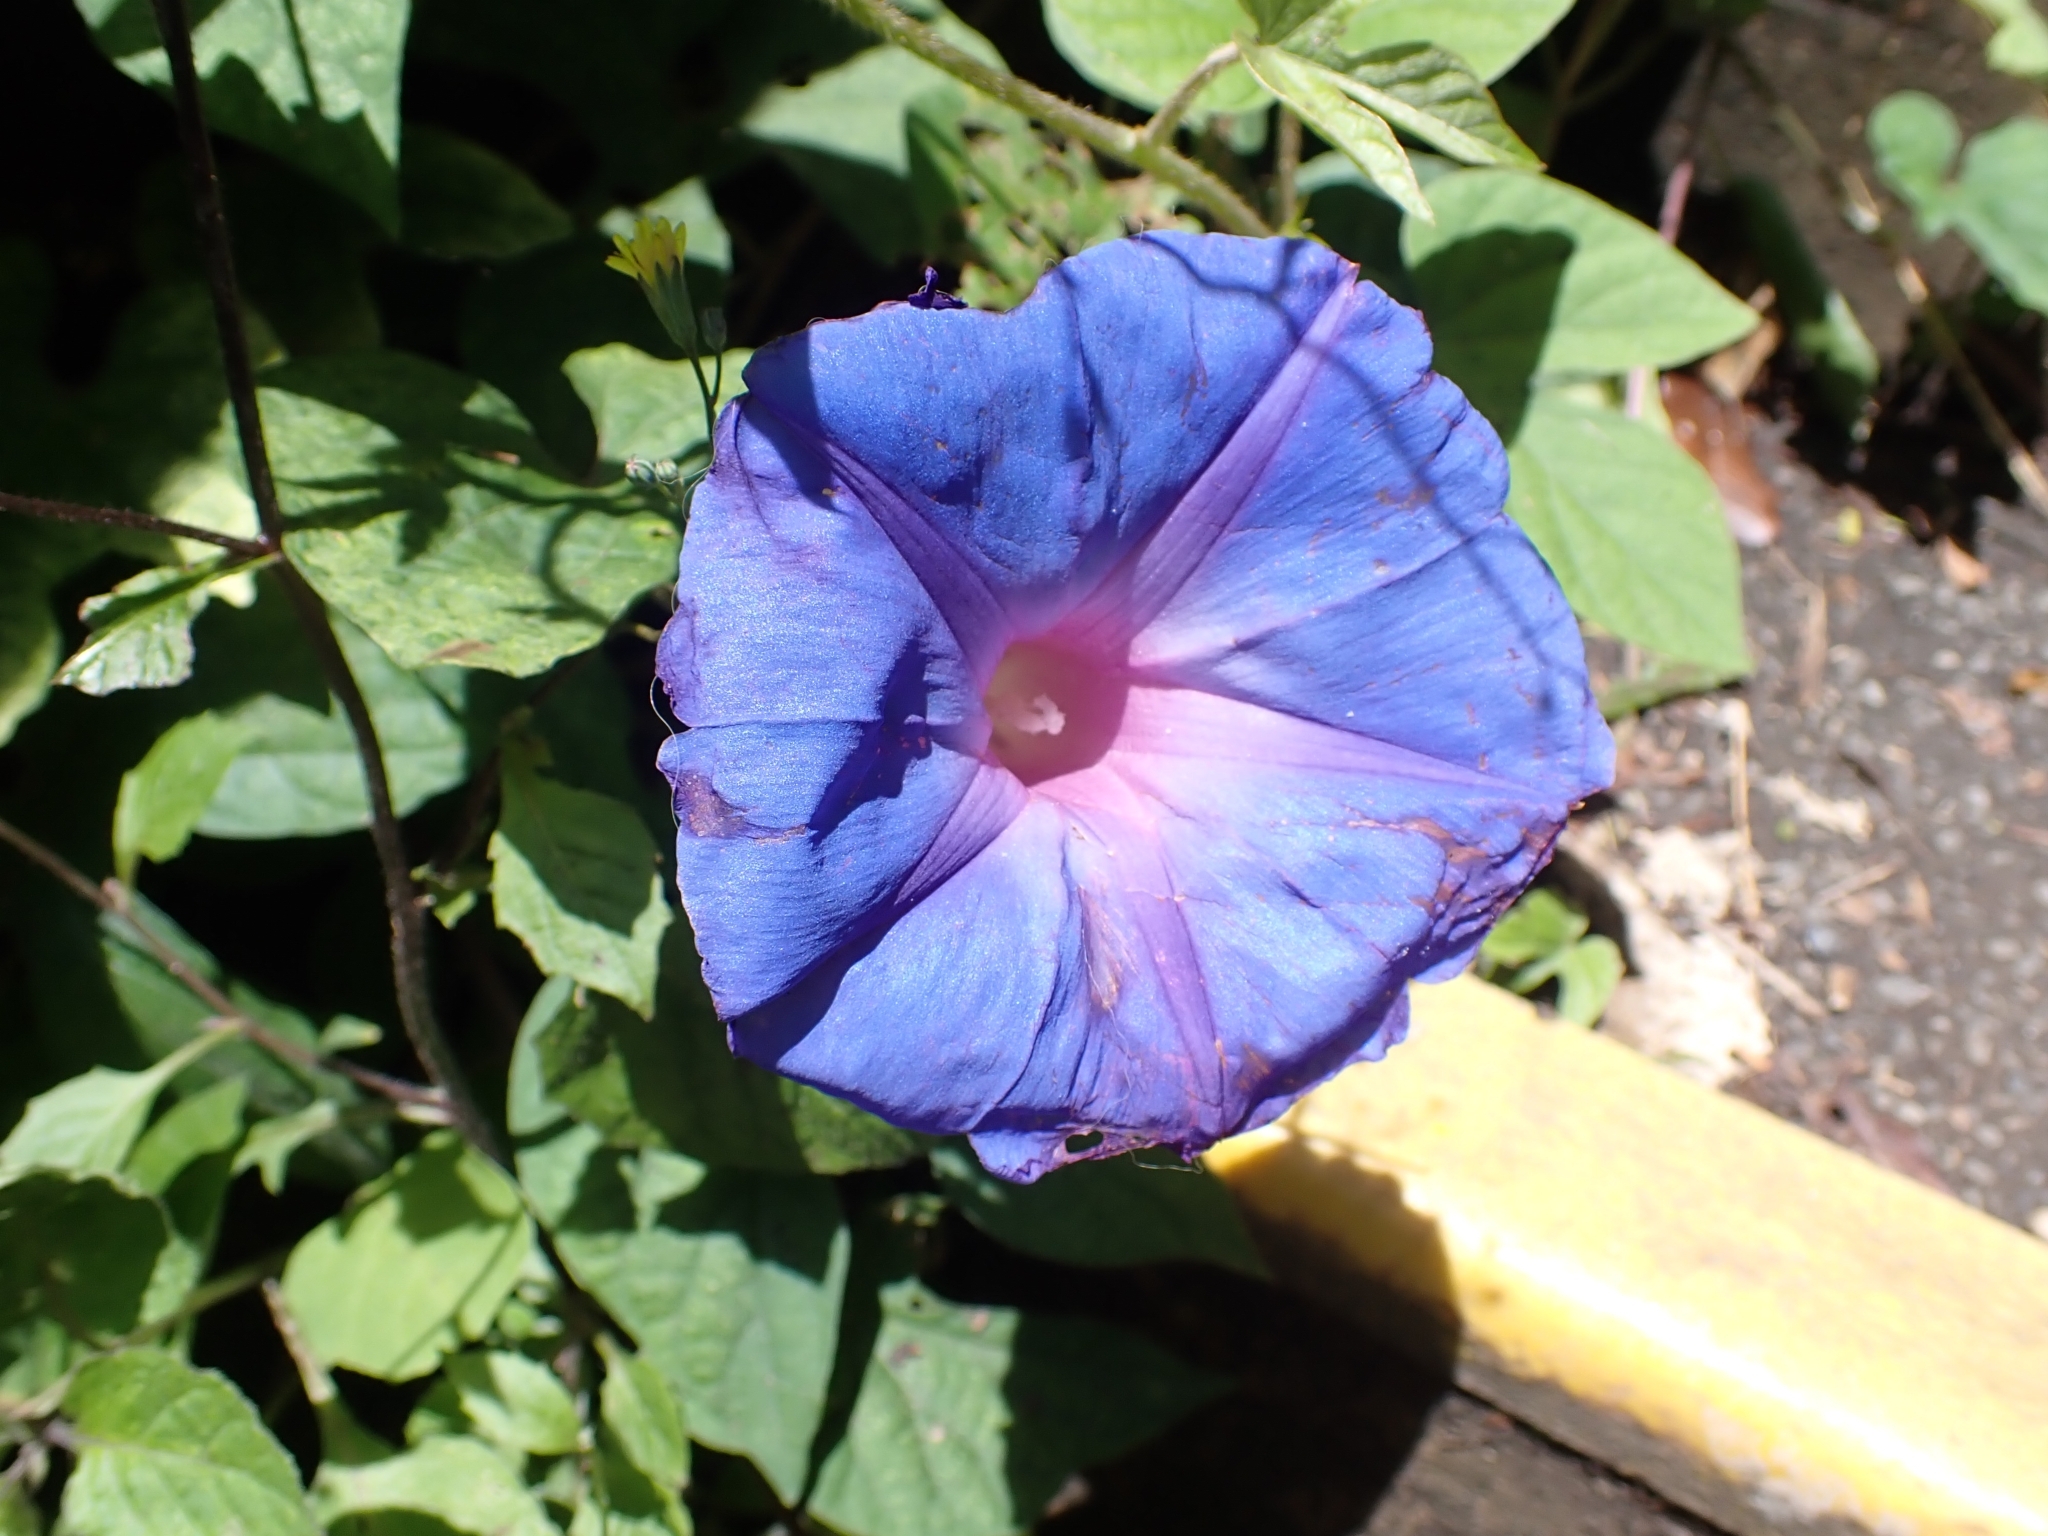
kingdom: Plantae
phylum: Tracheophyta
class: Magnoliopsida
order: Solanales
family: Convolvulaceae
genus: Ipomoea
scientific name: Ipomoea indica
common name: Blue dawnflower
